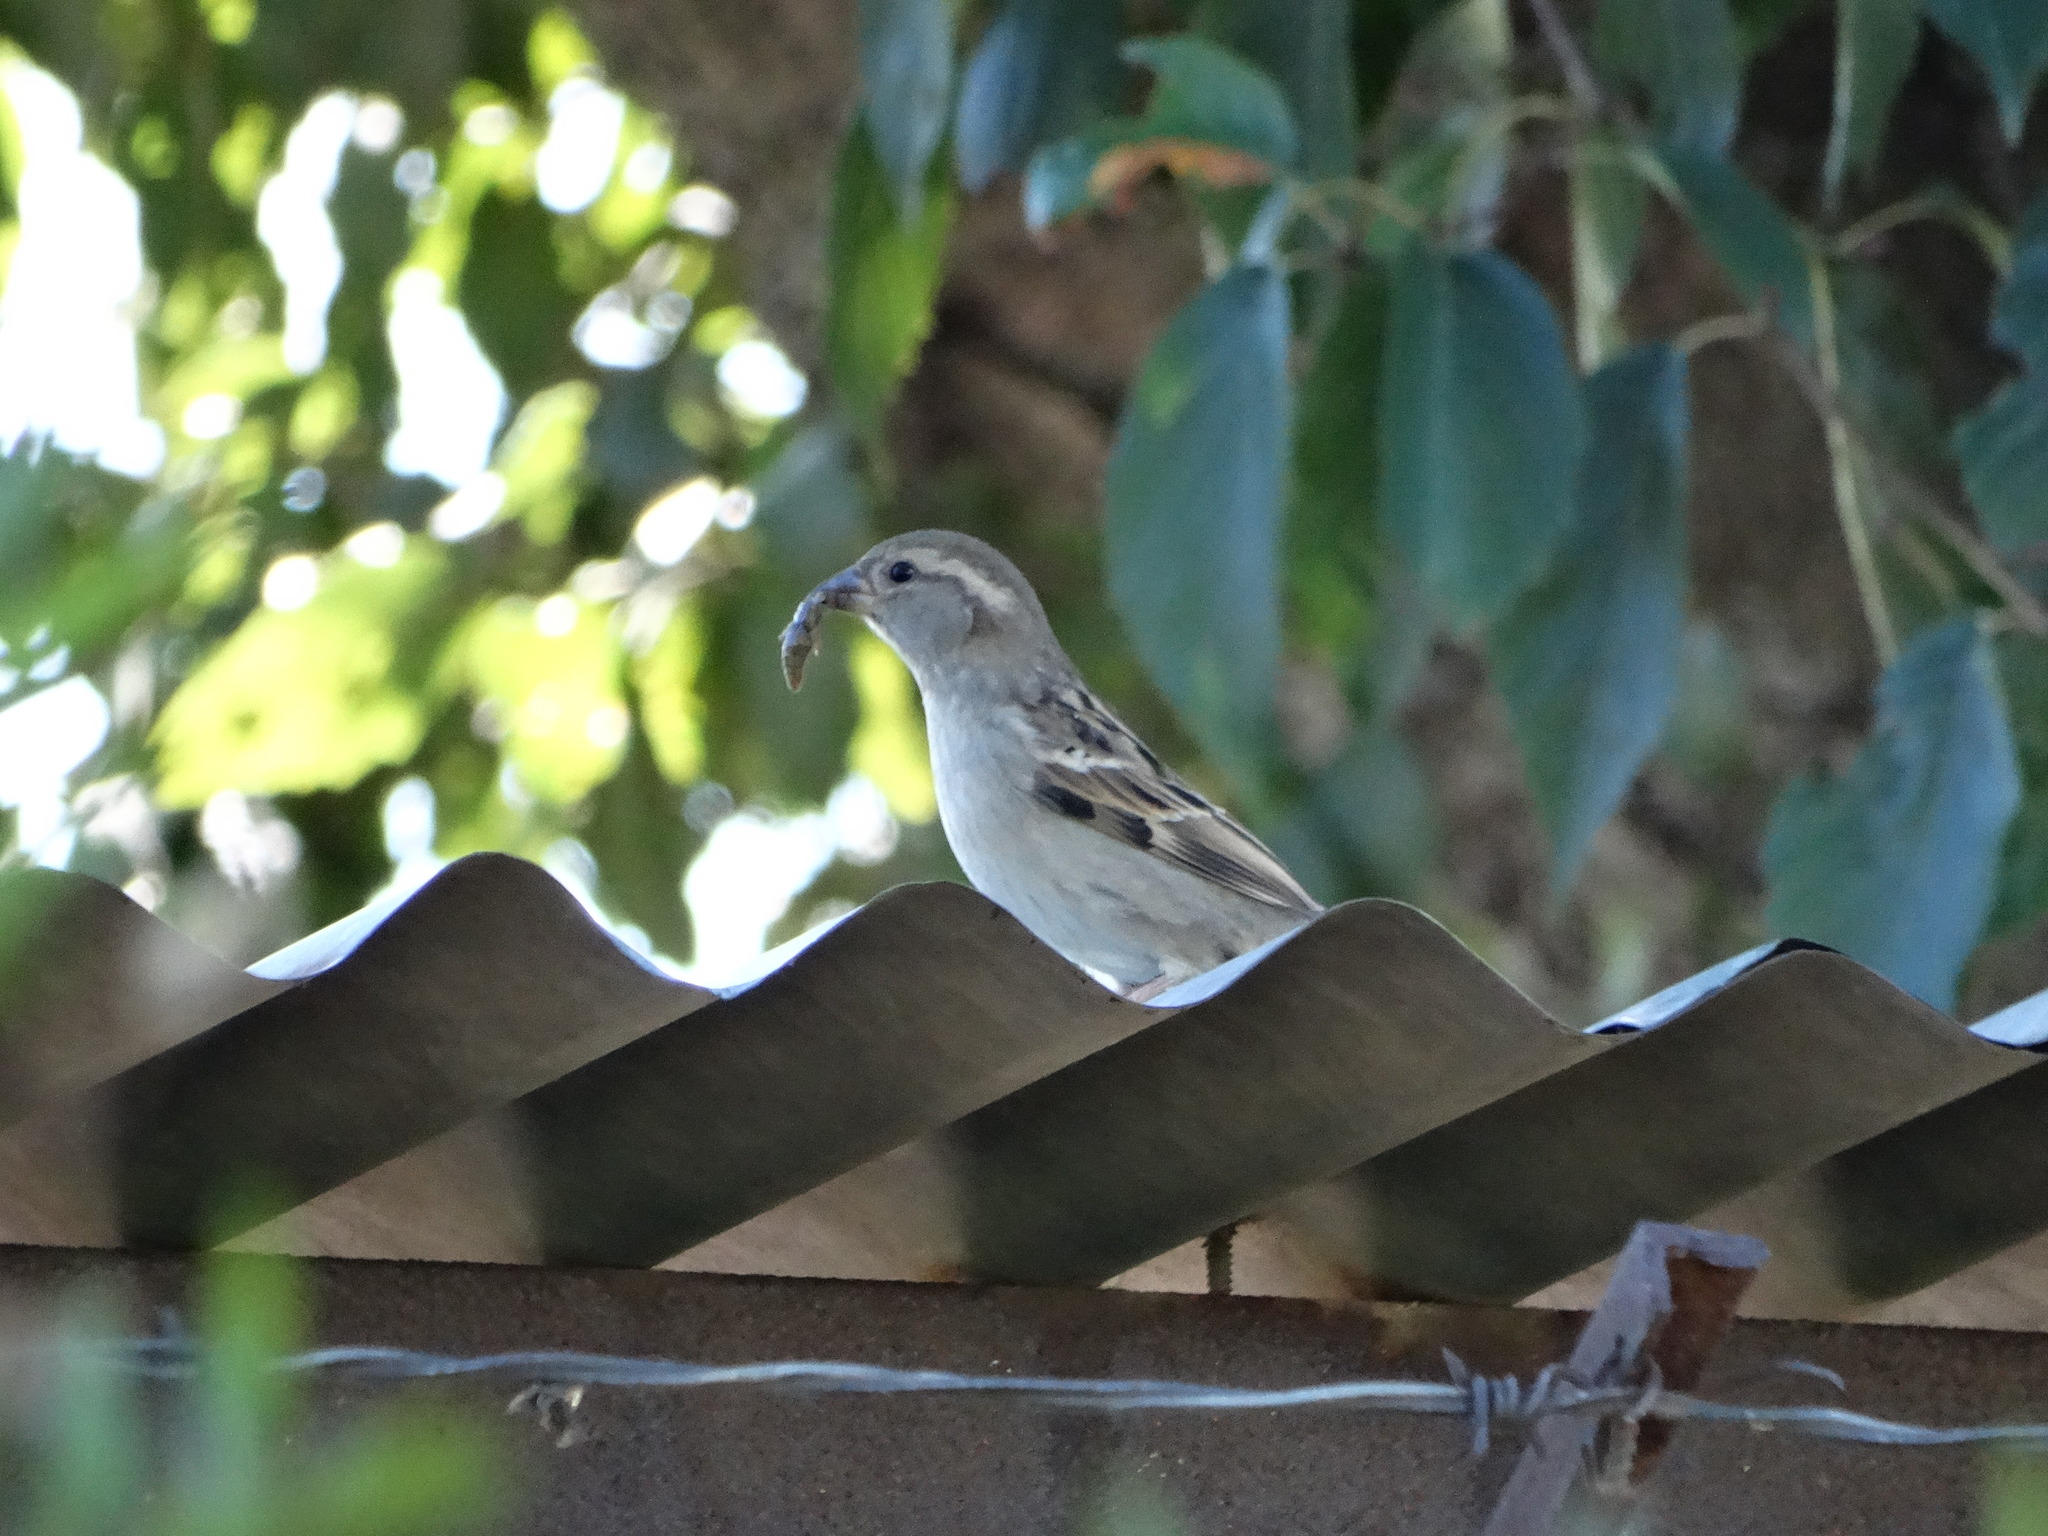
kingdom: Animalia
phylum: Chordata
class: Aves
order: Passeriformes
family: Passerellidae
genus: Spizella
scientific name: Spizella passerina
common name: Chipping sparrow
